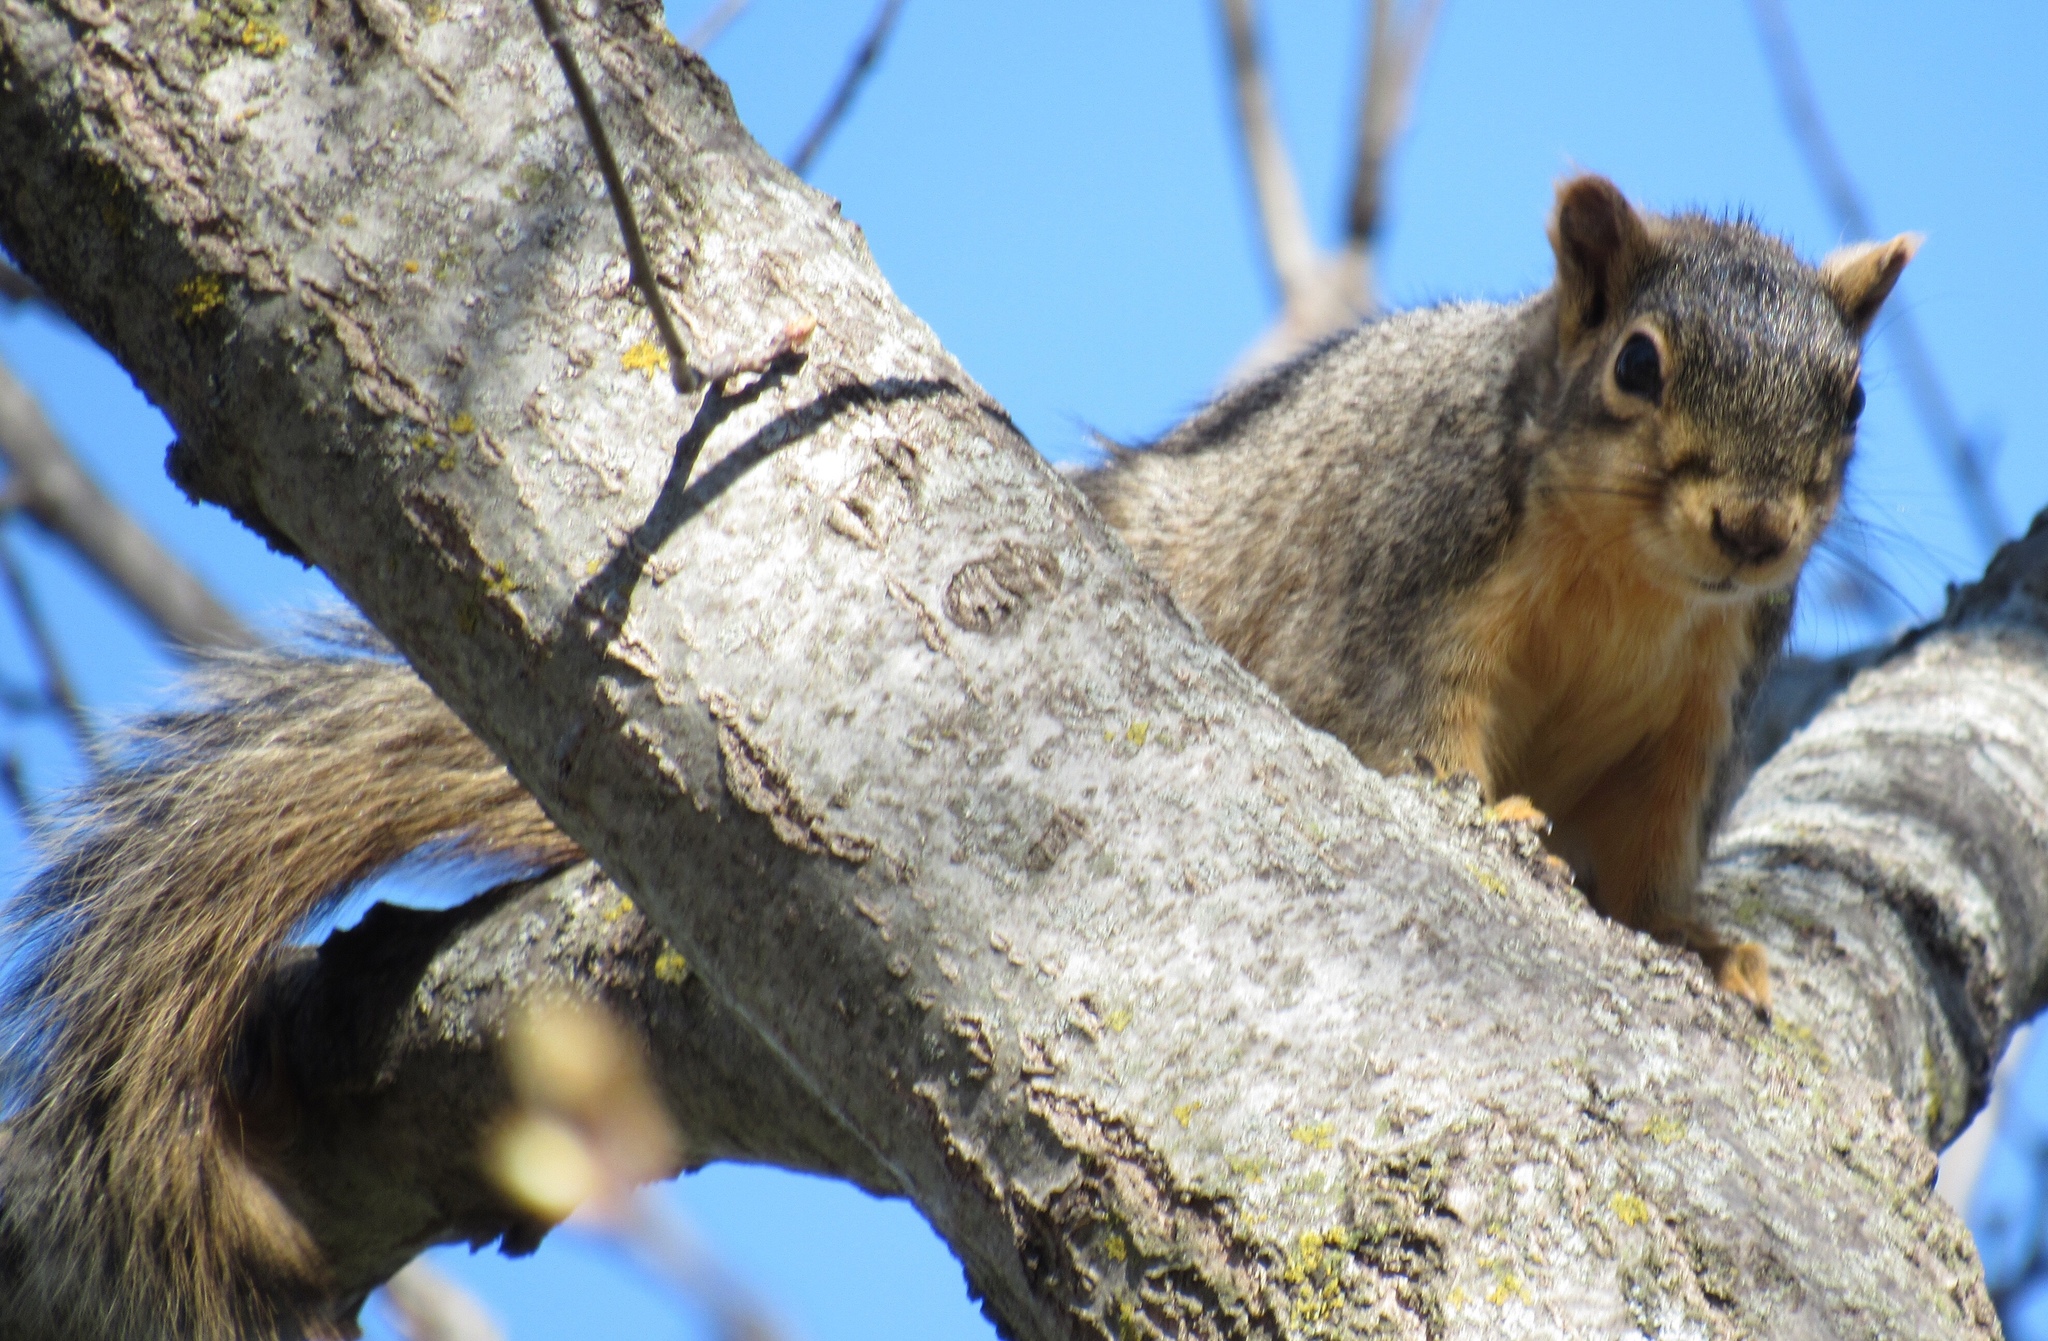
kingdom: Animalia
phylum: Chordata
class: Mammalia
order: Rodentia
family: Sciuridae
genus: Sciurus
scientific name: Sciurus niger
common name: Fox squirrel
